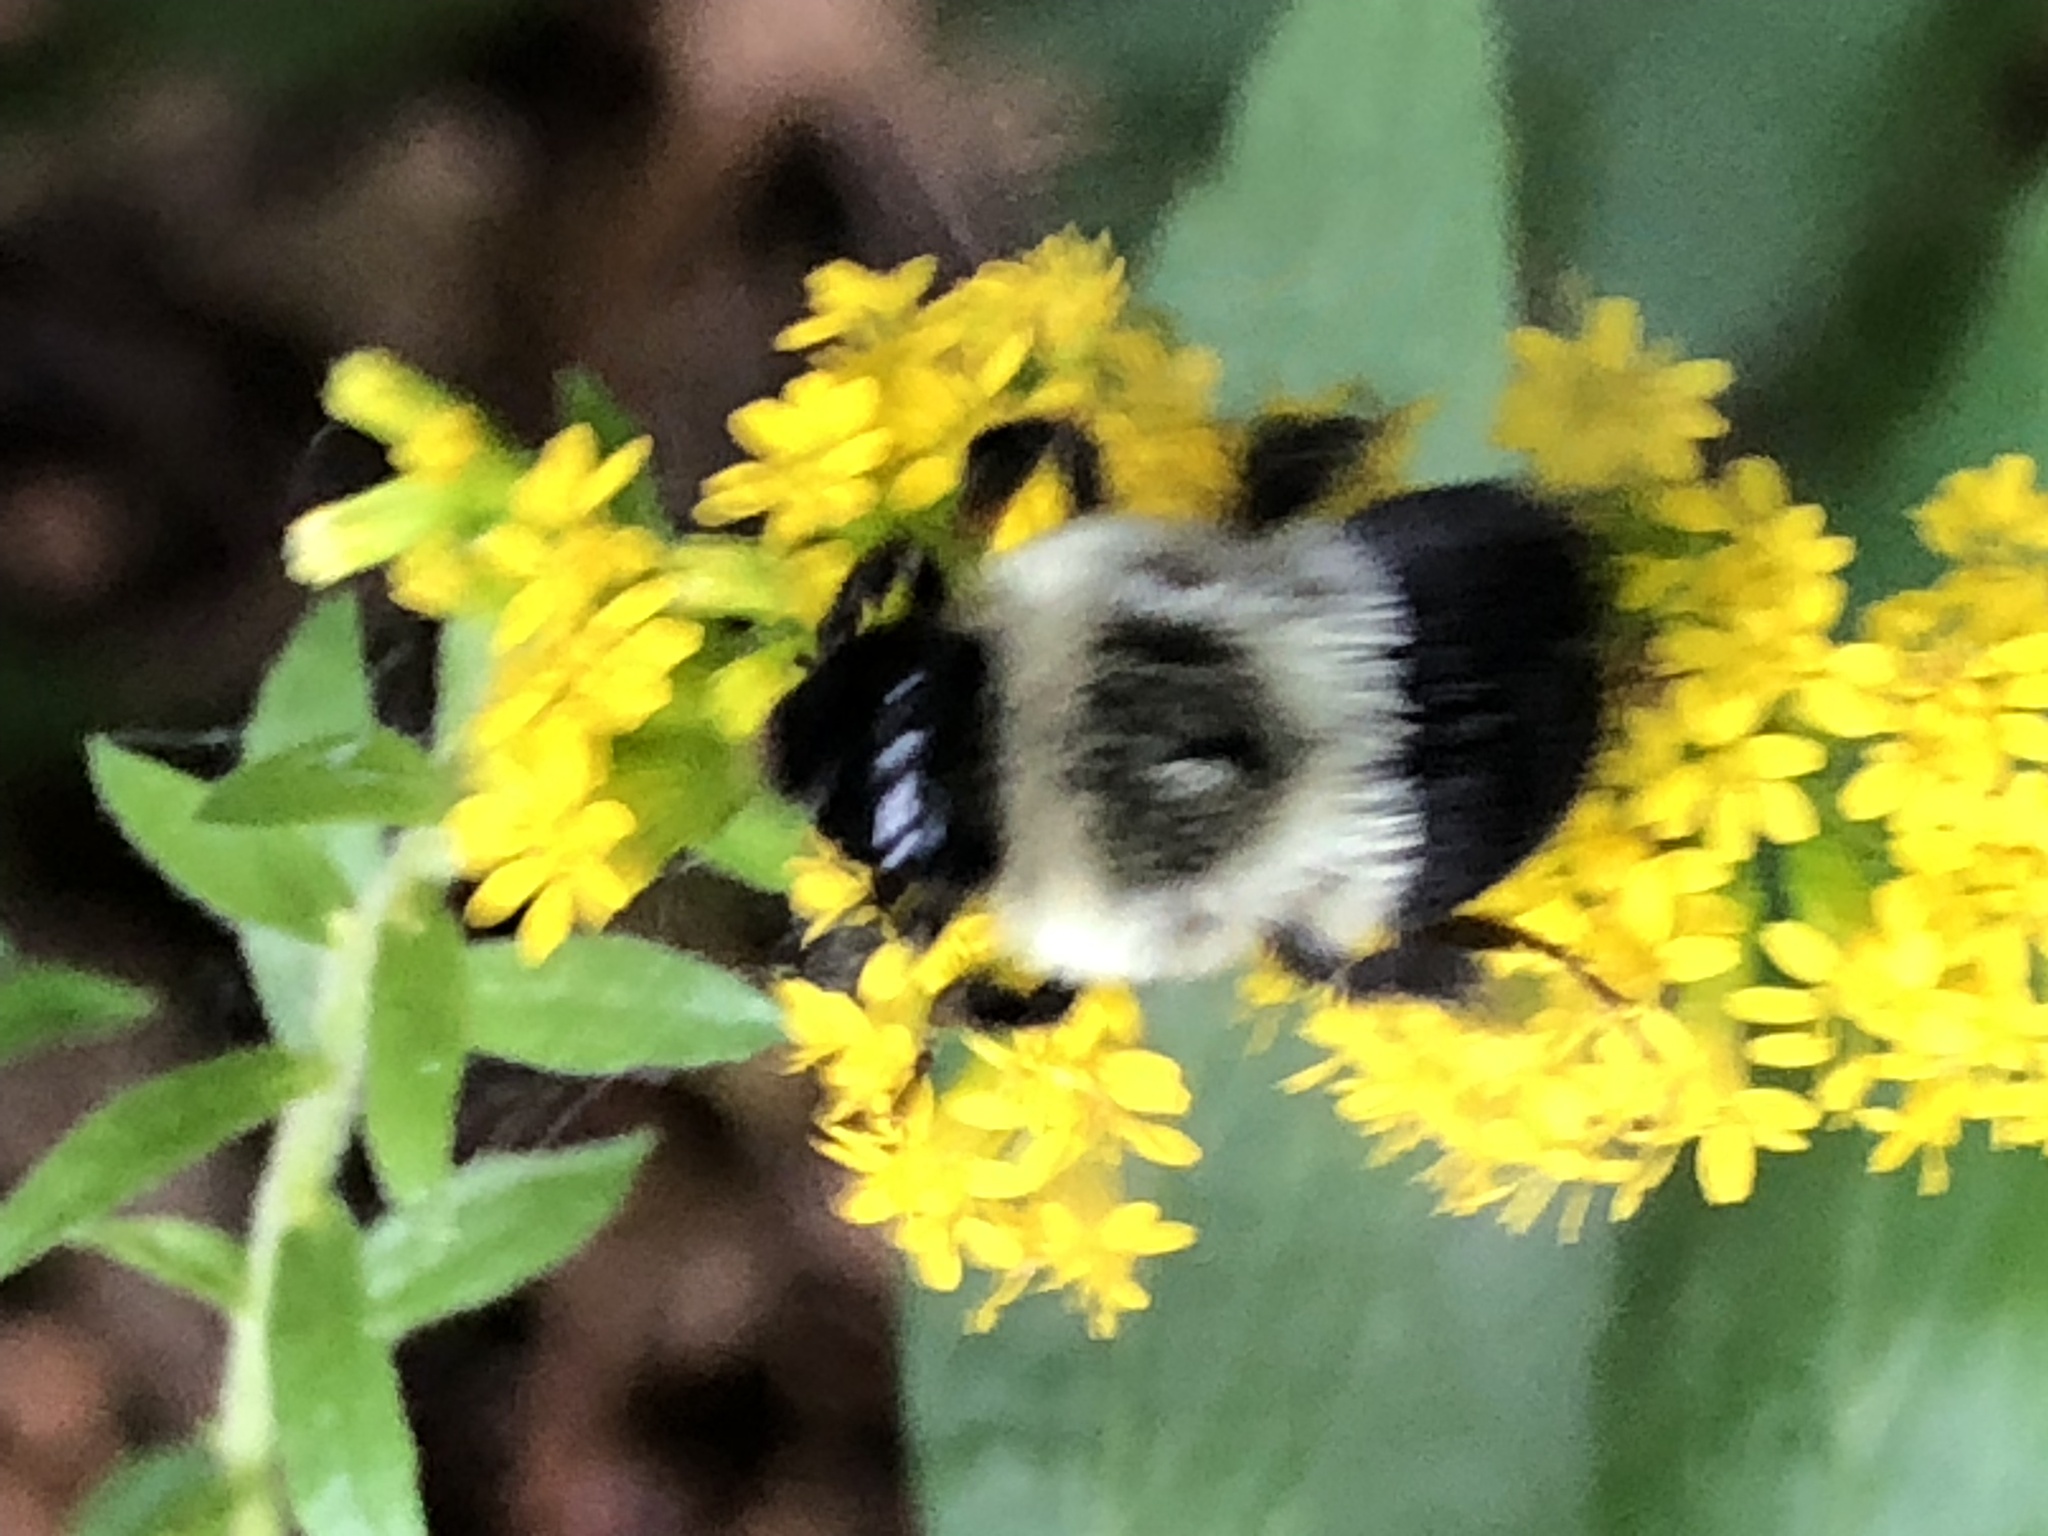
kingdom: Animalia
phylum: Arthropoda
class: Insecta
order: Hymenoptera
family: Apidae
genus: Bombus
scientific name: Bombus impatiens
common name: Common eastern bumble bee
